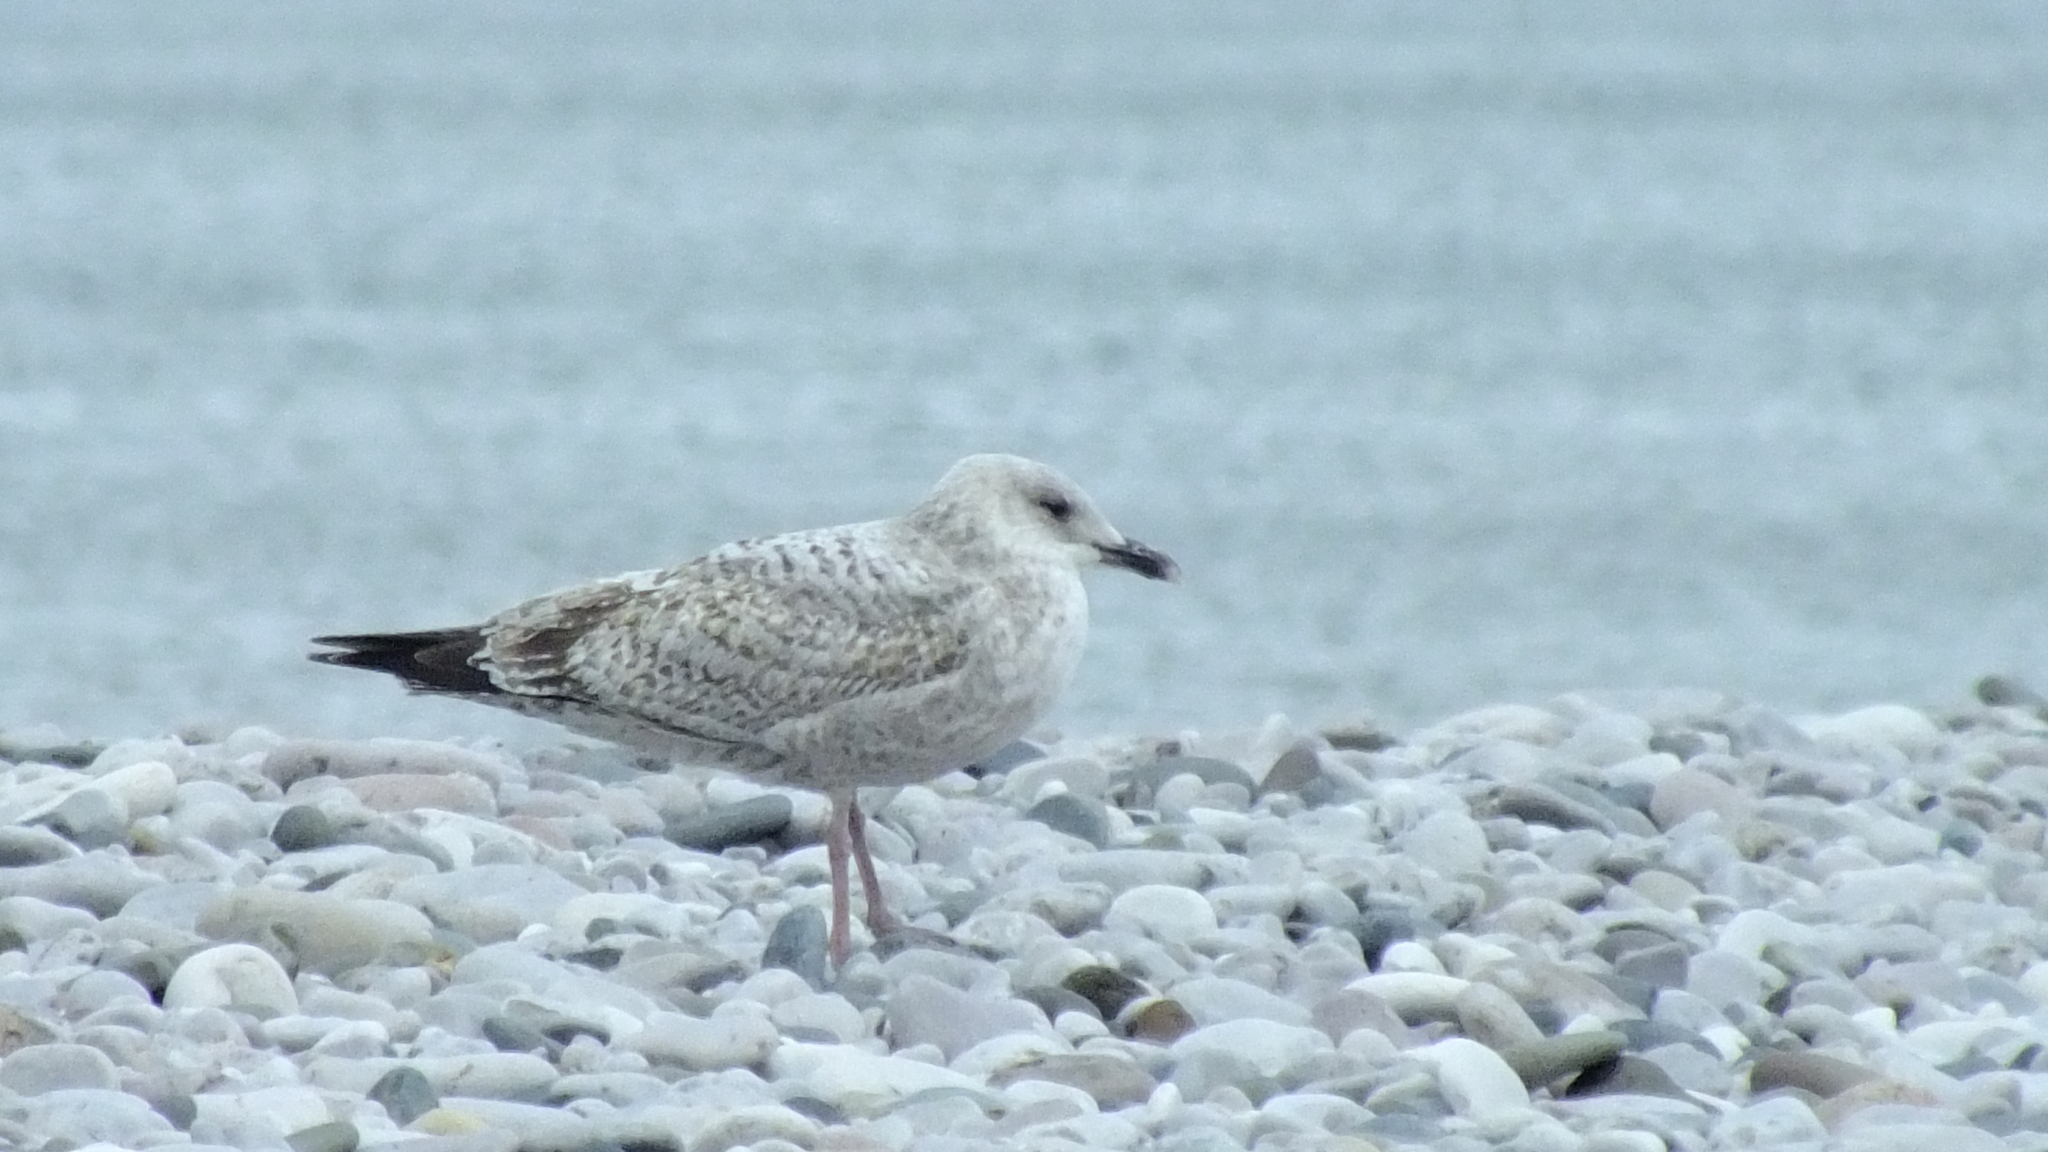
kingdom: Animalia
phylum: Chordata
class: Aves
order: Charadriiformes
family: Laridae
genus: Larus
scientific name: Larus argentatus
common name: Herring gull
